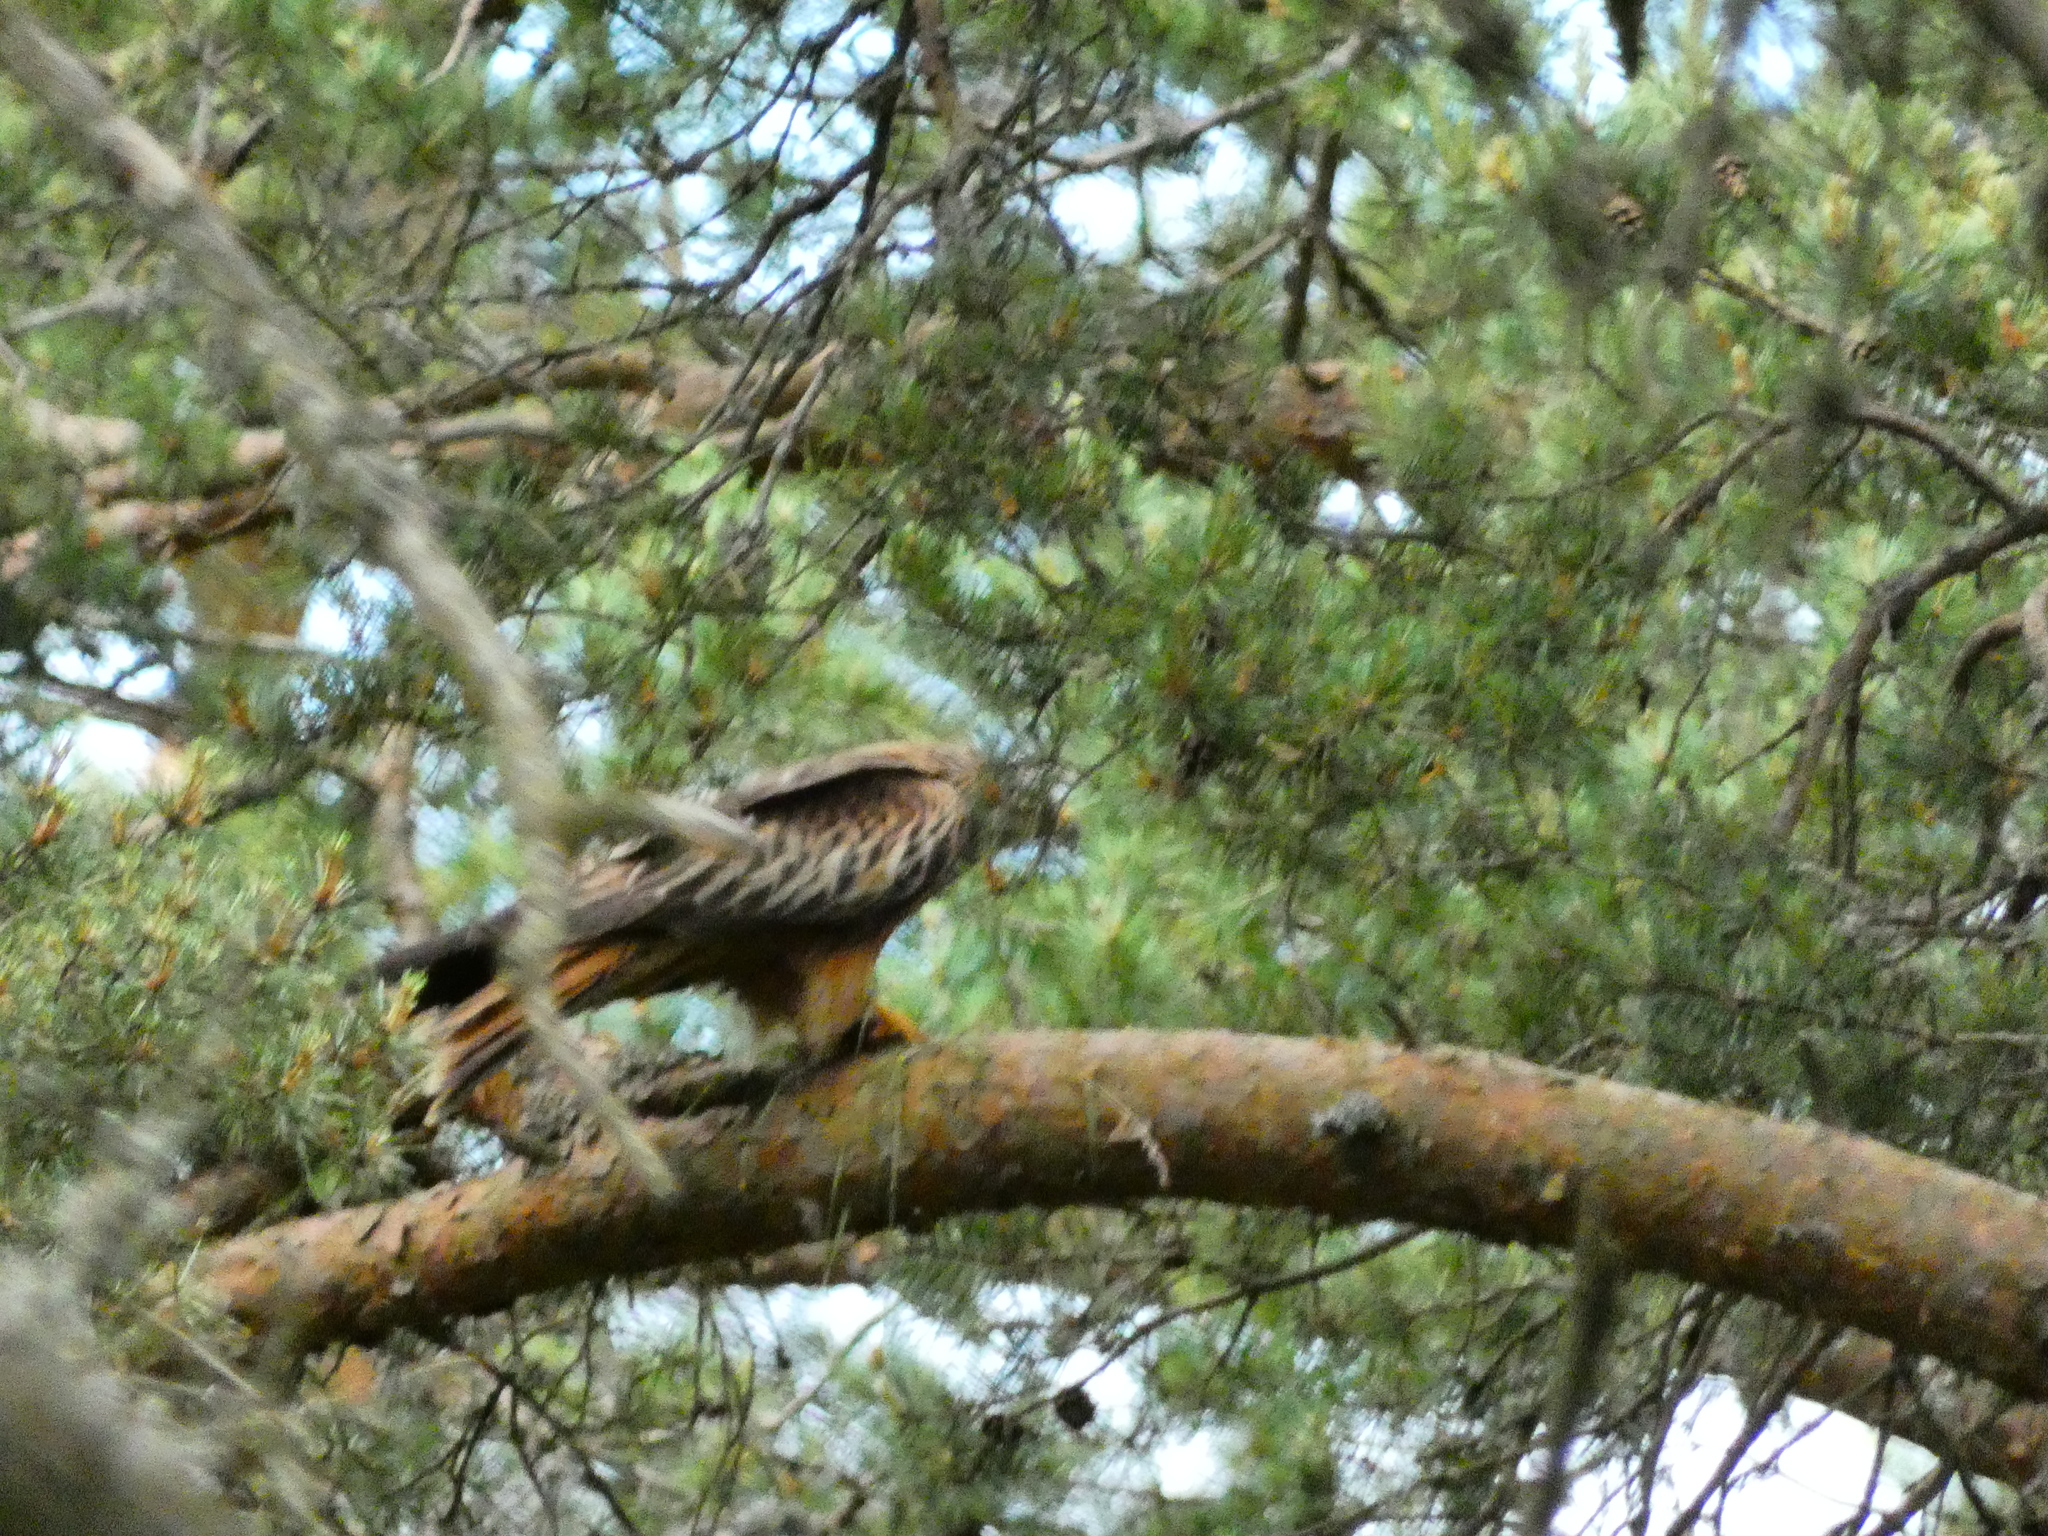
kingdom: Animalia
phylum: Chordata
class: Aves
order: Accipitriformes
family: Accipitridae
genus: Milvus
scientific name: Milvus milvus
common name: Red kite
